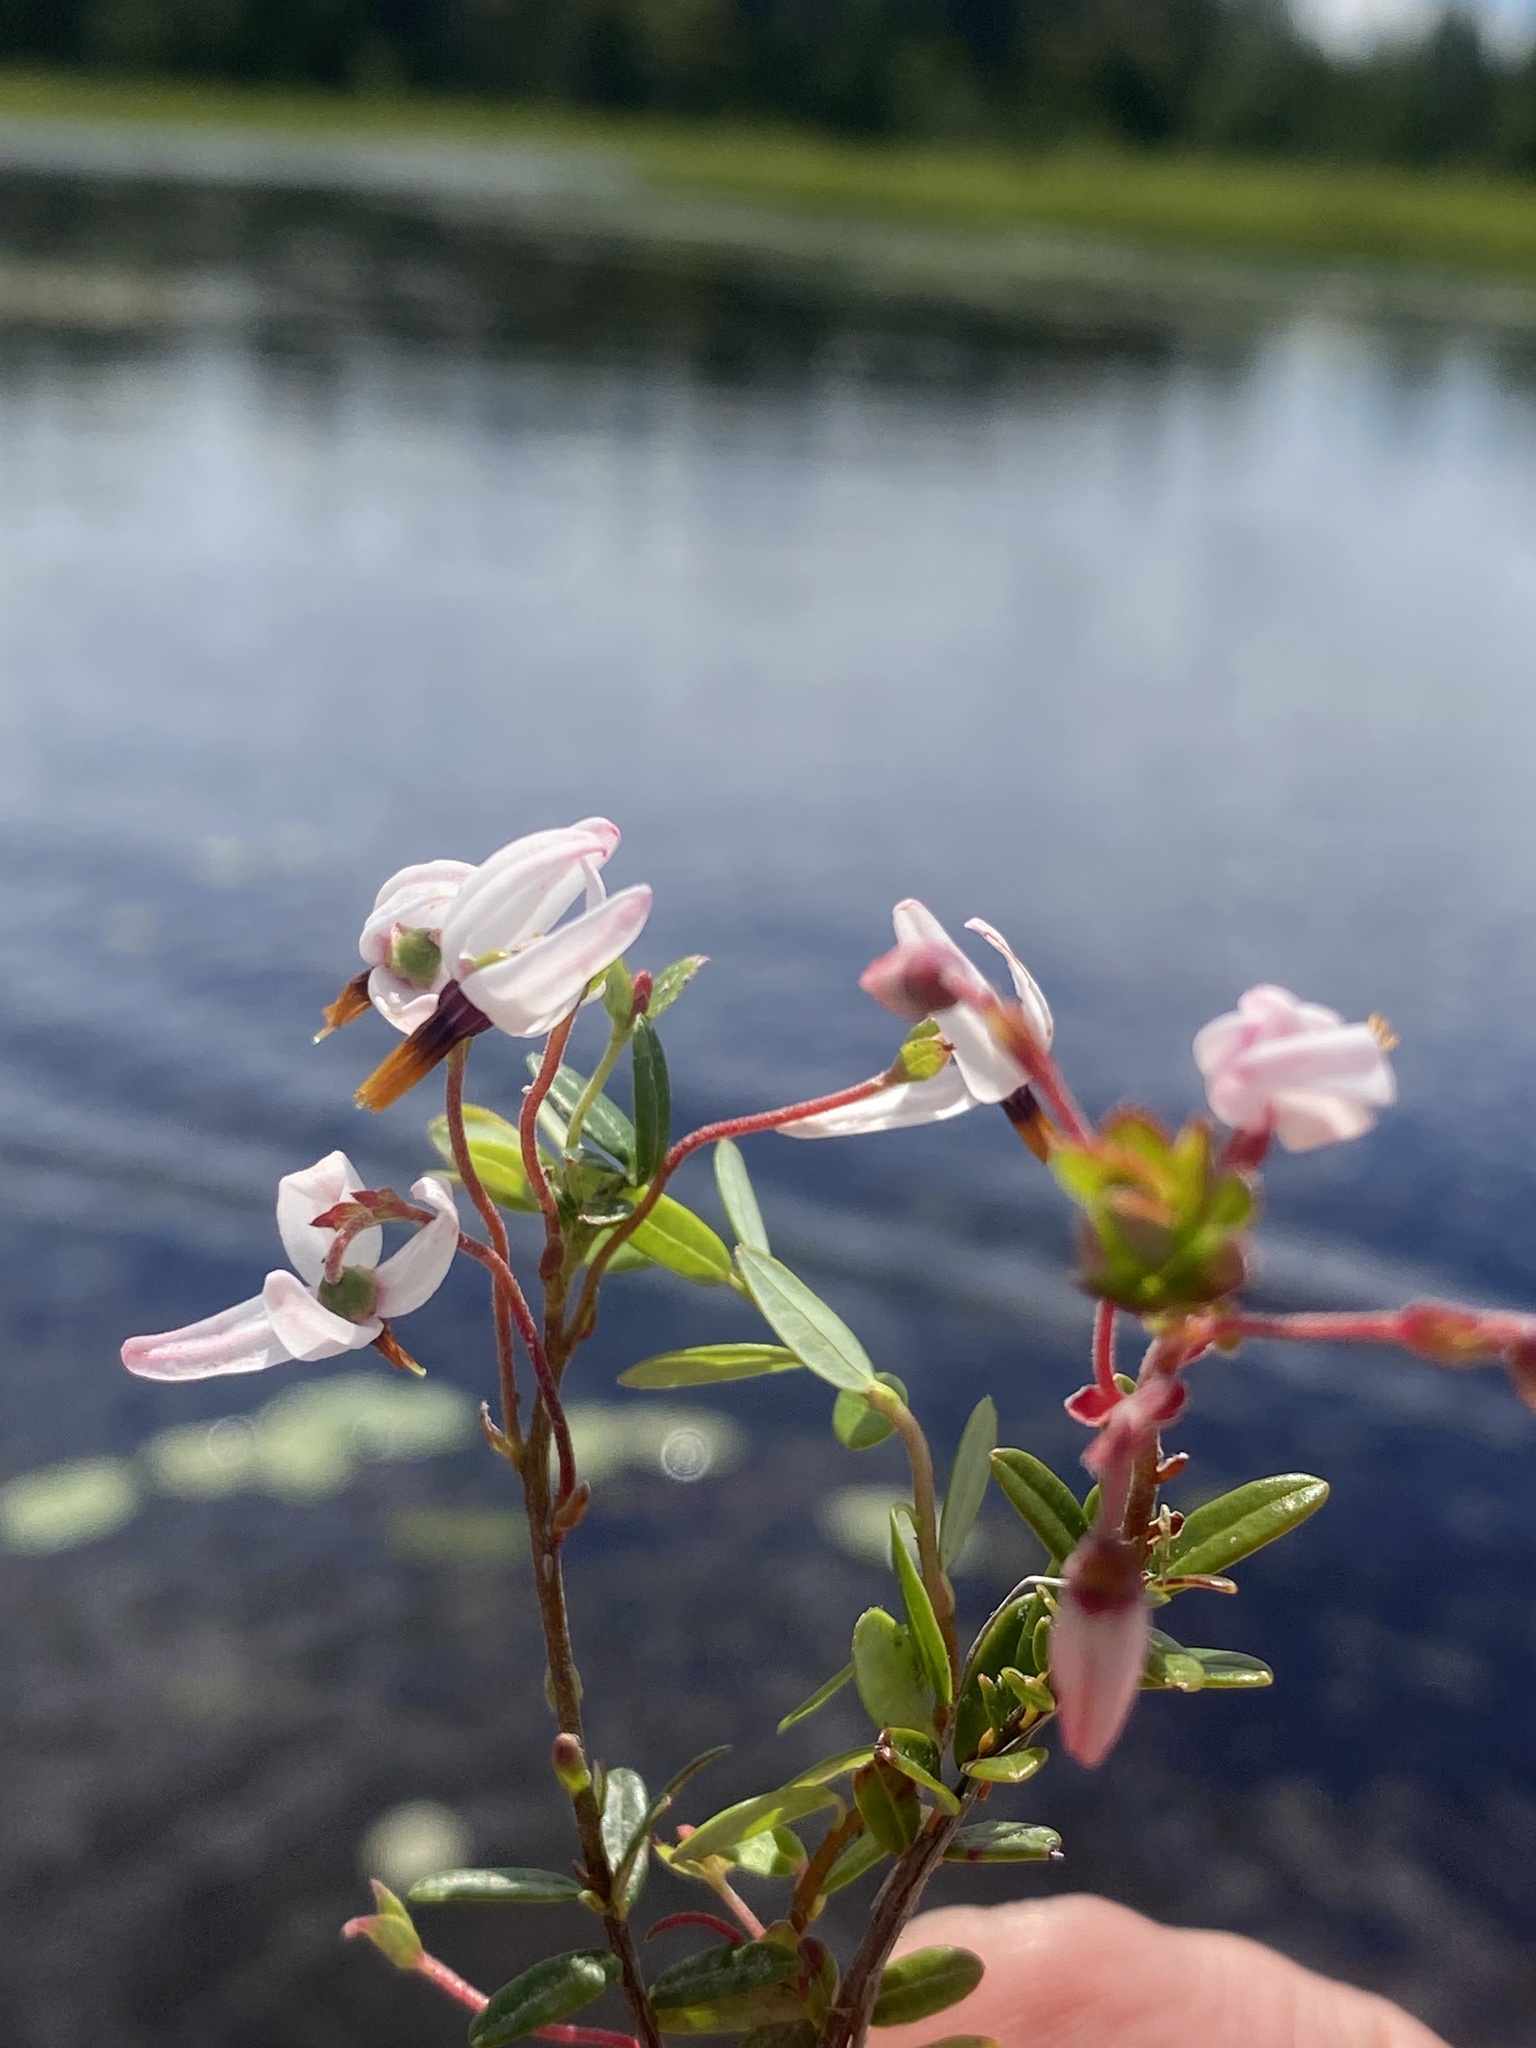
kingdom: Plantae
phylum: Tracheophyta
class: Magnoliopsida
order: Ericales
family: Ericaceae
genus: Vaccinium
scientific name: Vaccinium macrocarpon
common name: American cranberry
